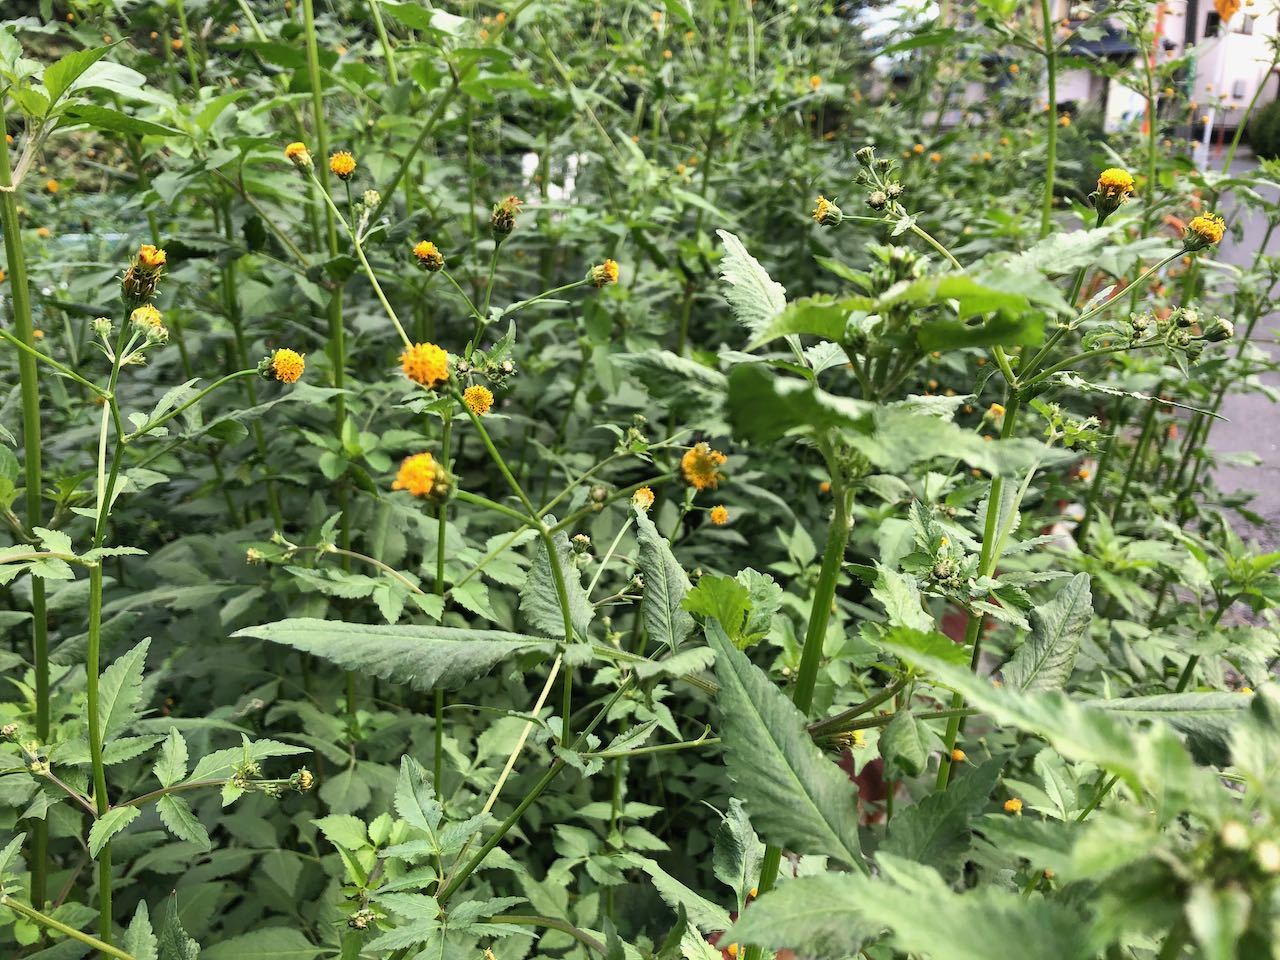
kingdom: Plantae
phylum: Tracheophyta
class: Magnoliopsida
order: Asterales
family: Asteraceae
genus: Bidens
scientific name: Bidens pilosa
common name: Black-jack
